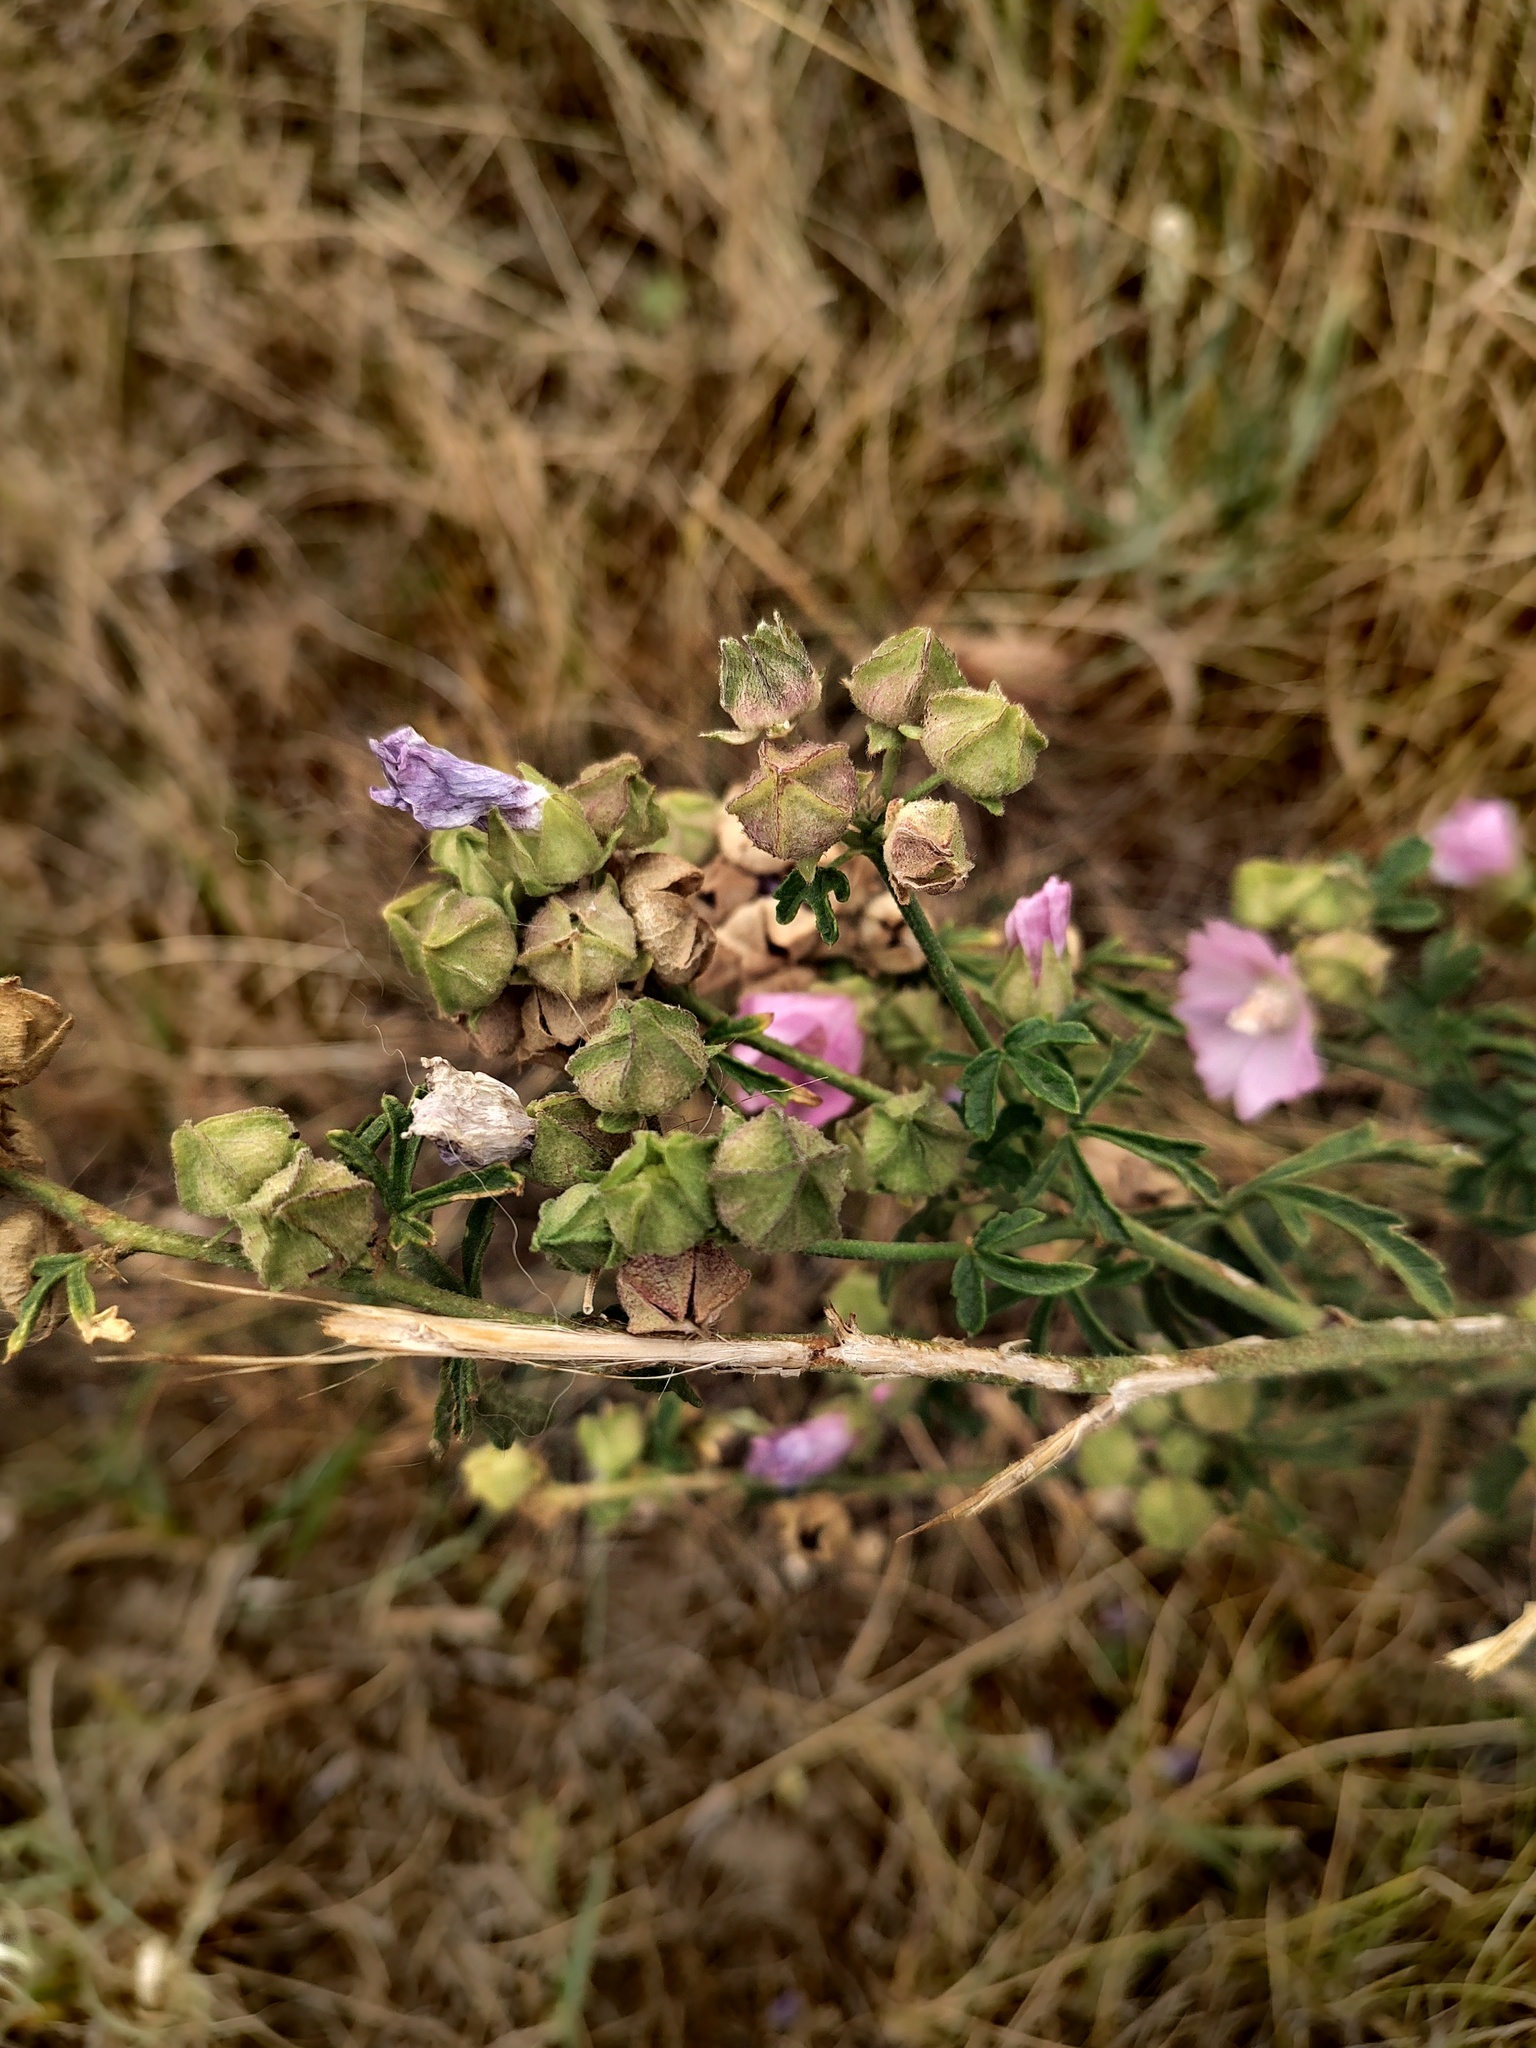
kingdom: Plantae
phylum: Tracheophyta
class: Magnoliopsida
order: Malvales
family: Malvaceae
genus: Malva
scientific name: Malva sylvestris
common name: Common mallow
